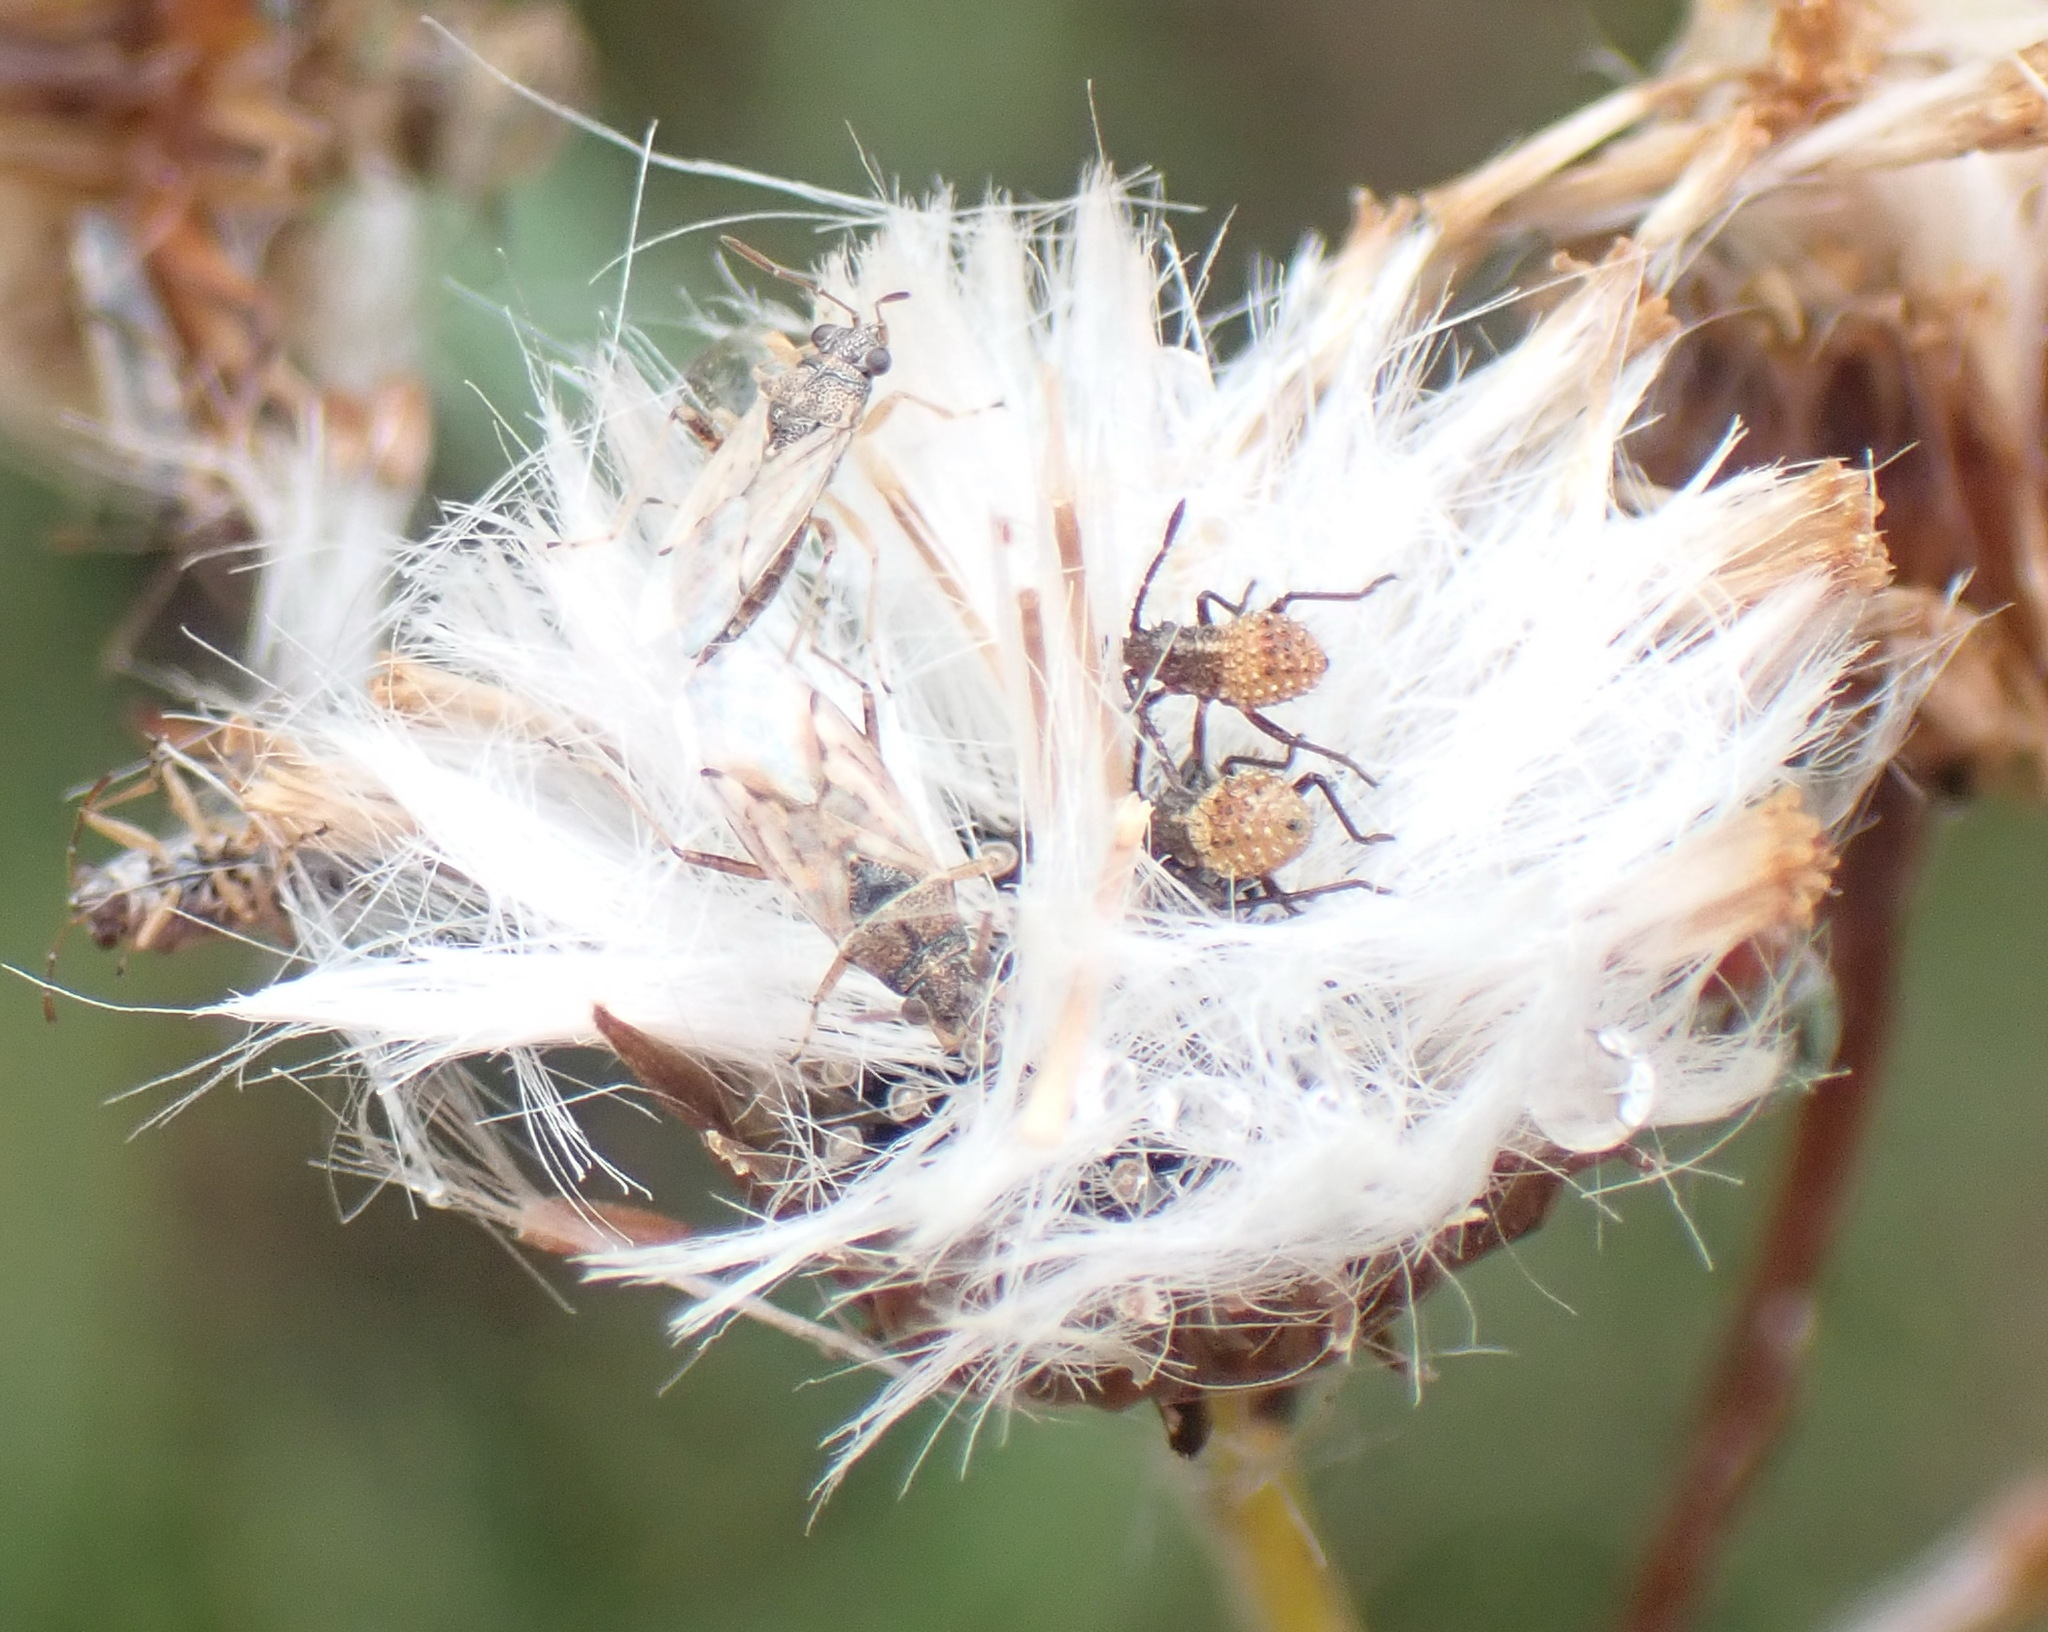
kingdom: Plantae
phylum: Tracheophyta
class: Magnoliopsida
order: Asterales
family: Asteraceae
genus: Senecio
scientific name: Senecio ilicifolius
